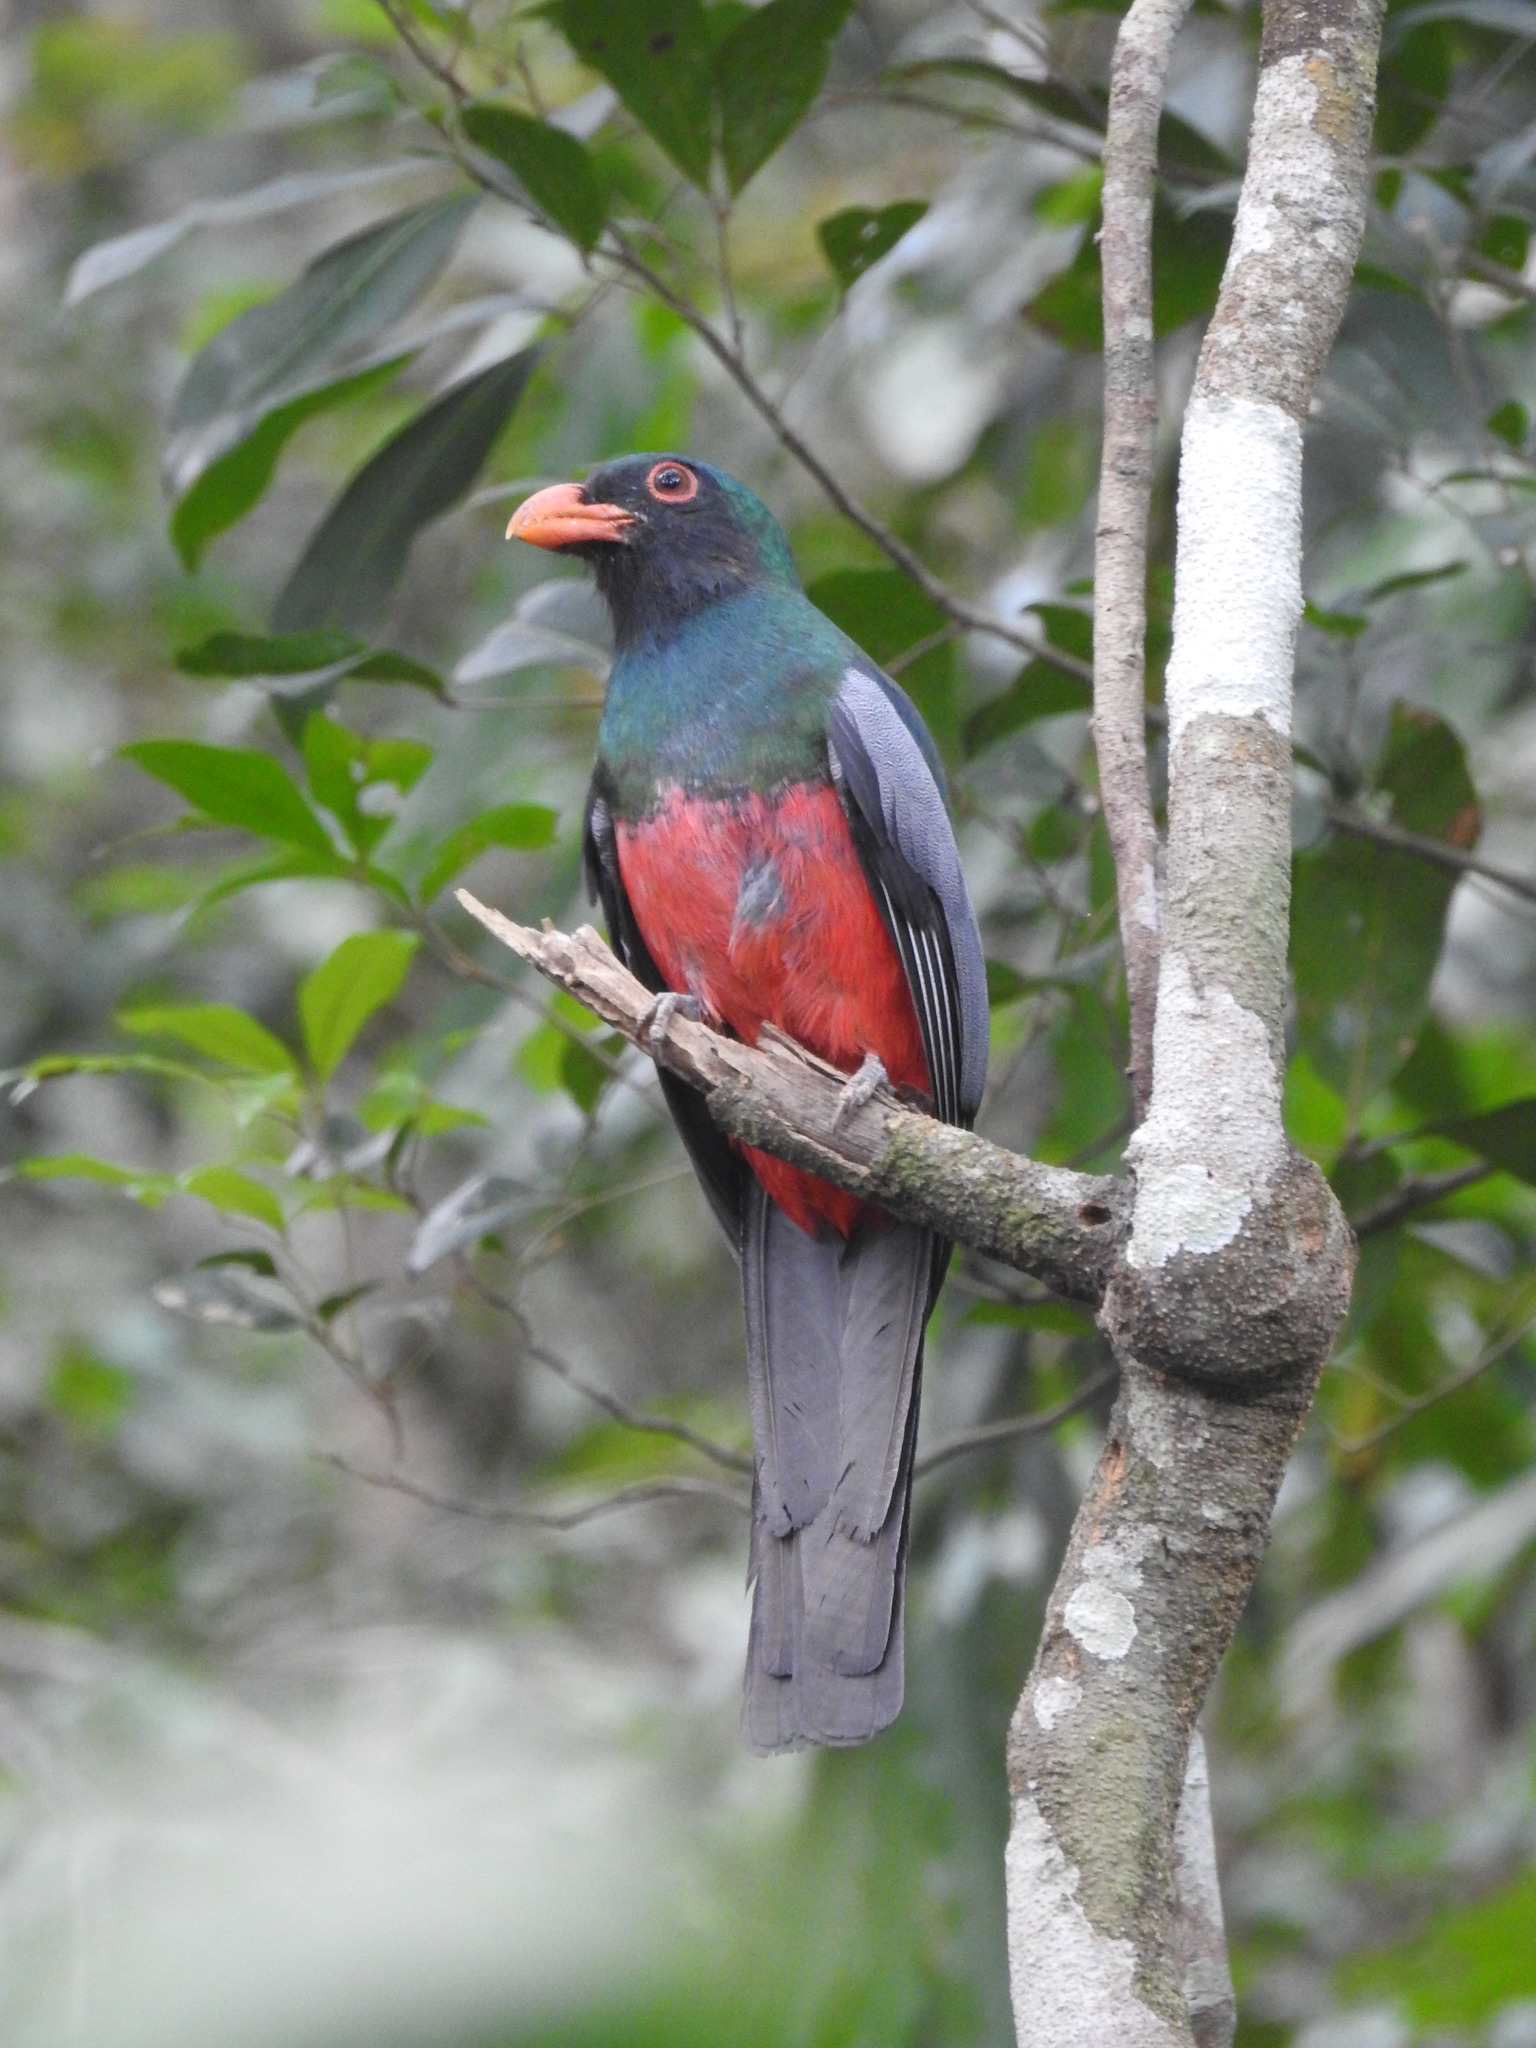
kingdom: Animalia
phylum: Chordata
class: Aves
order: Trogoniformes
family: Trogonidae
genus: Trogon
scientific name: Trogon massena
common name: Slaty-tailed trogon
